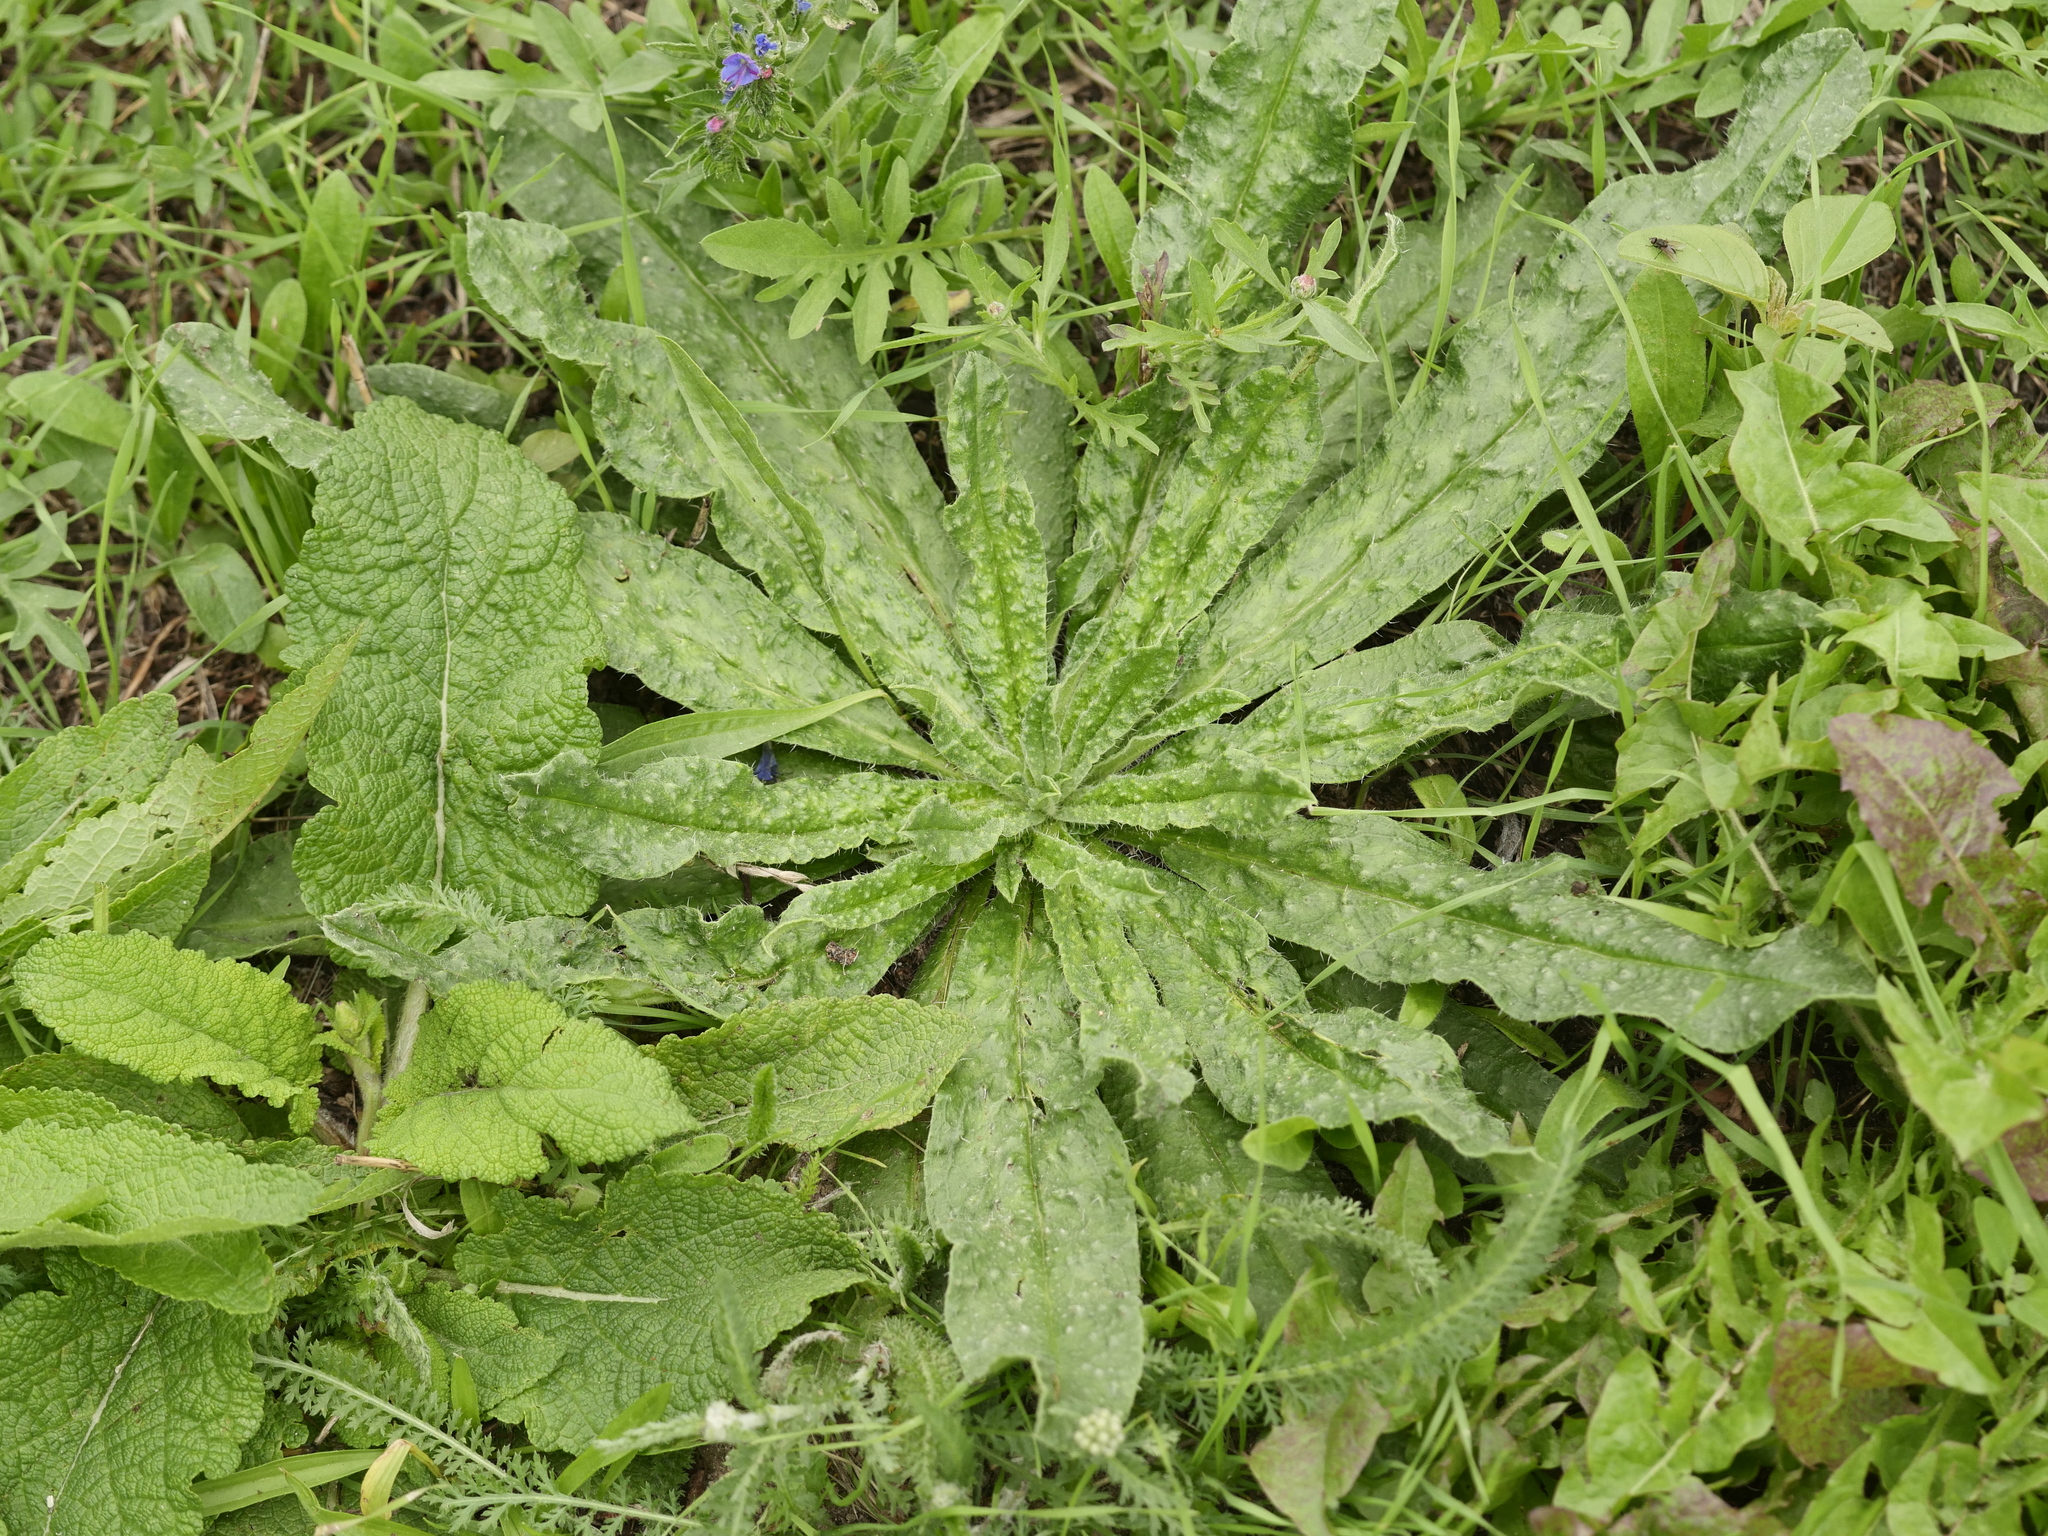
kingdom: Plantae
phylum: Tracheophyta
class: Magnoliopsida
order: Boraginales
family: Boraginaceae
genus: Echium
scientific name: Echium vulgare
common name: Common viper's bugloss
